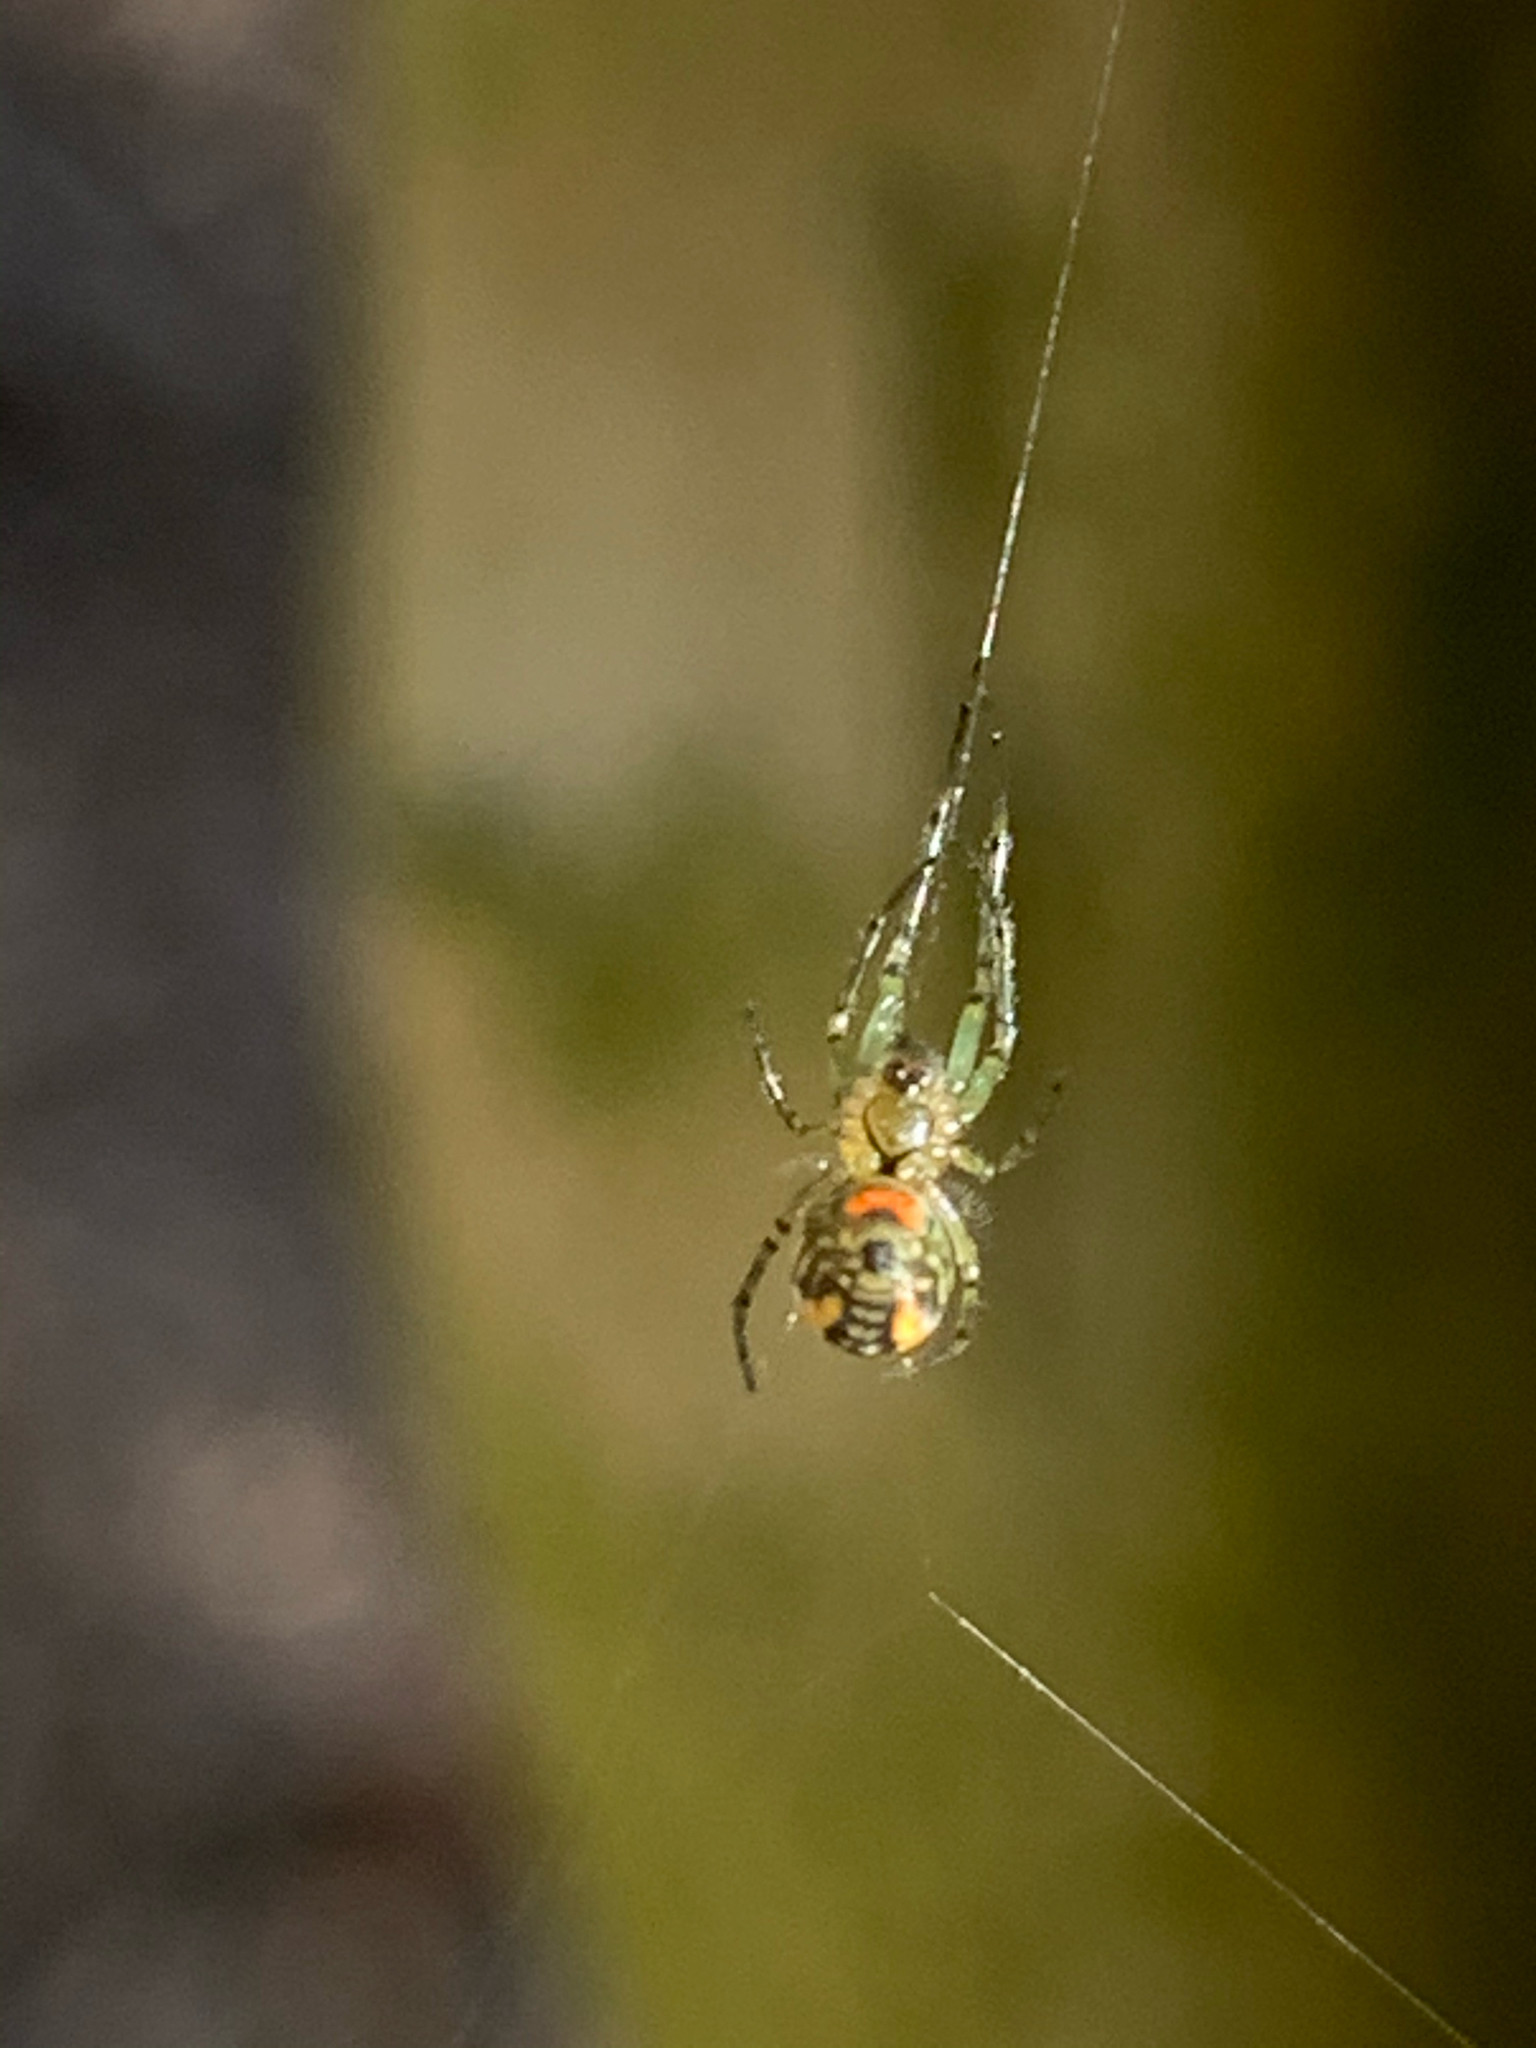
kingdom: Animalia
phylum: Arthropoda
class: Arachnida
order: Araneae
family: Tetragnathidae
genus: Leucauge
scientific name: Leucauge
